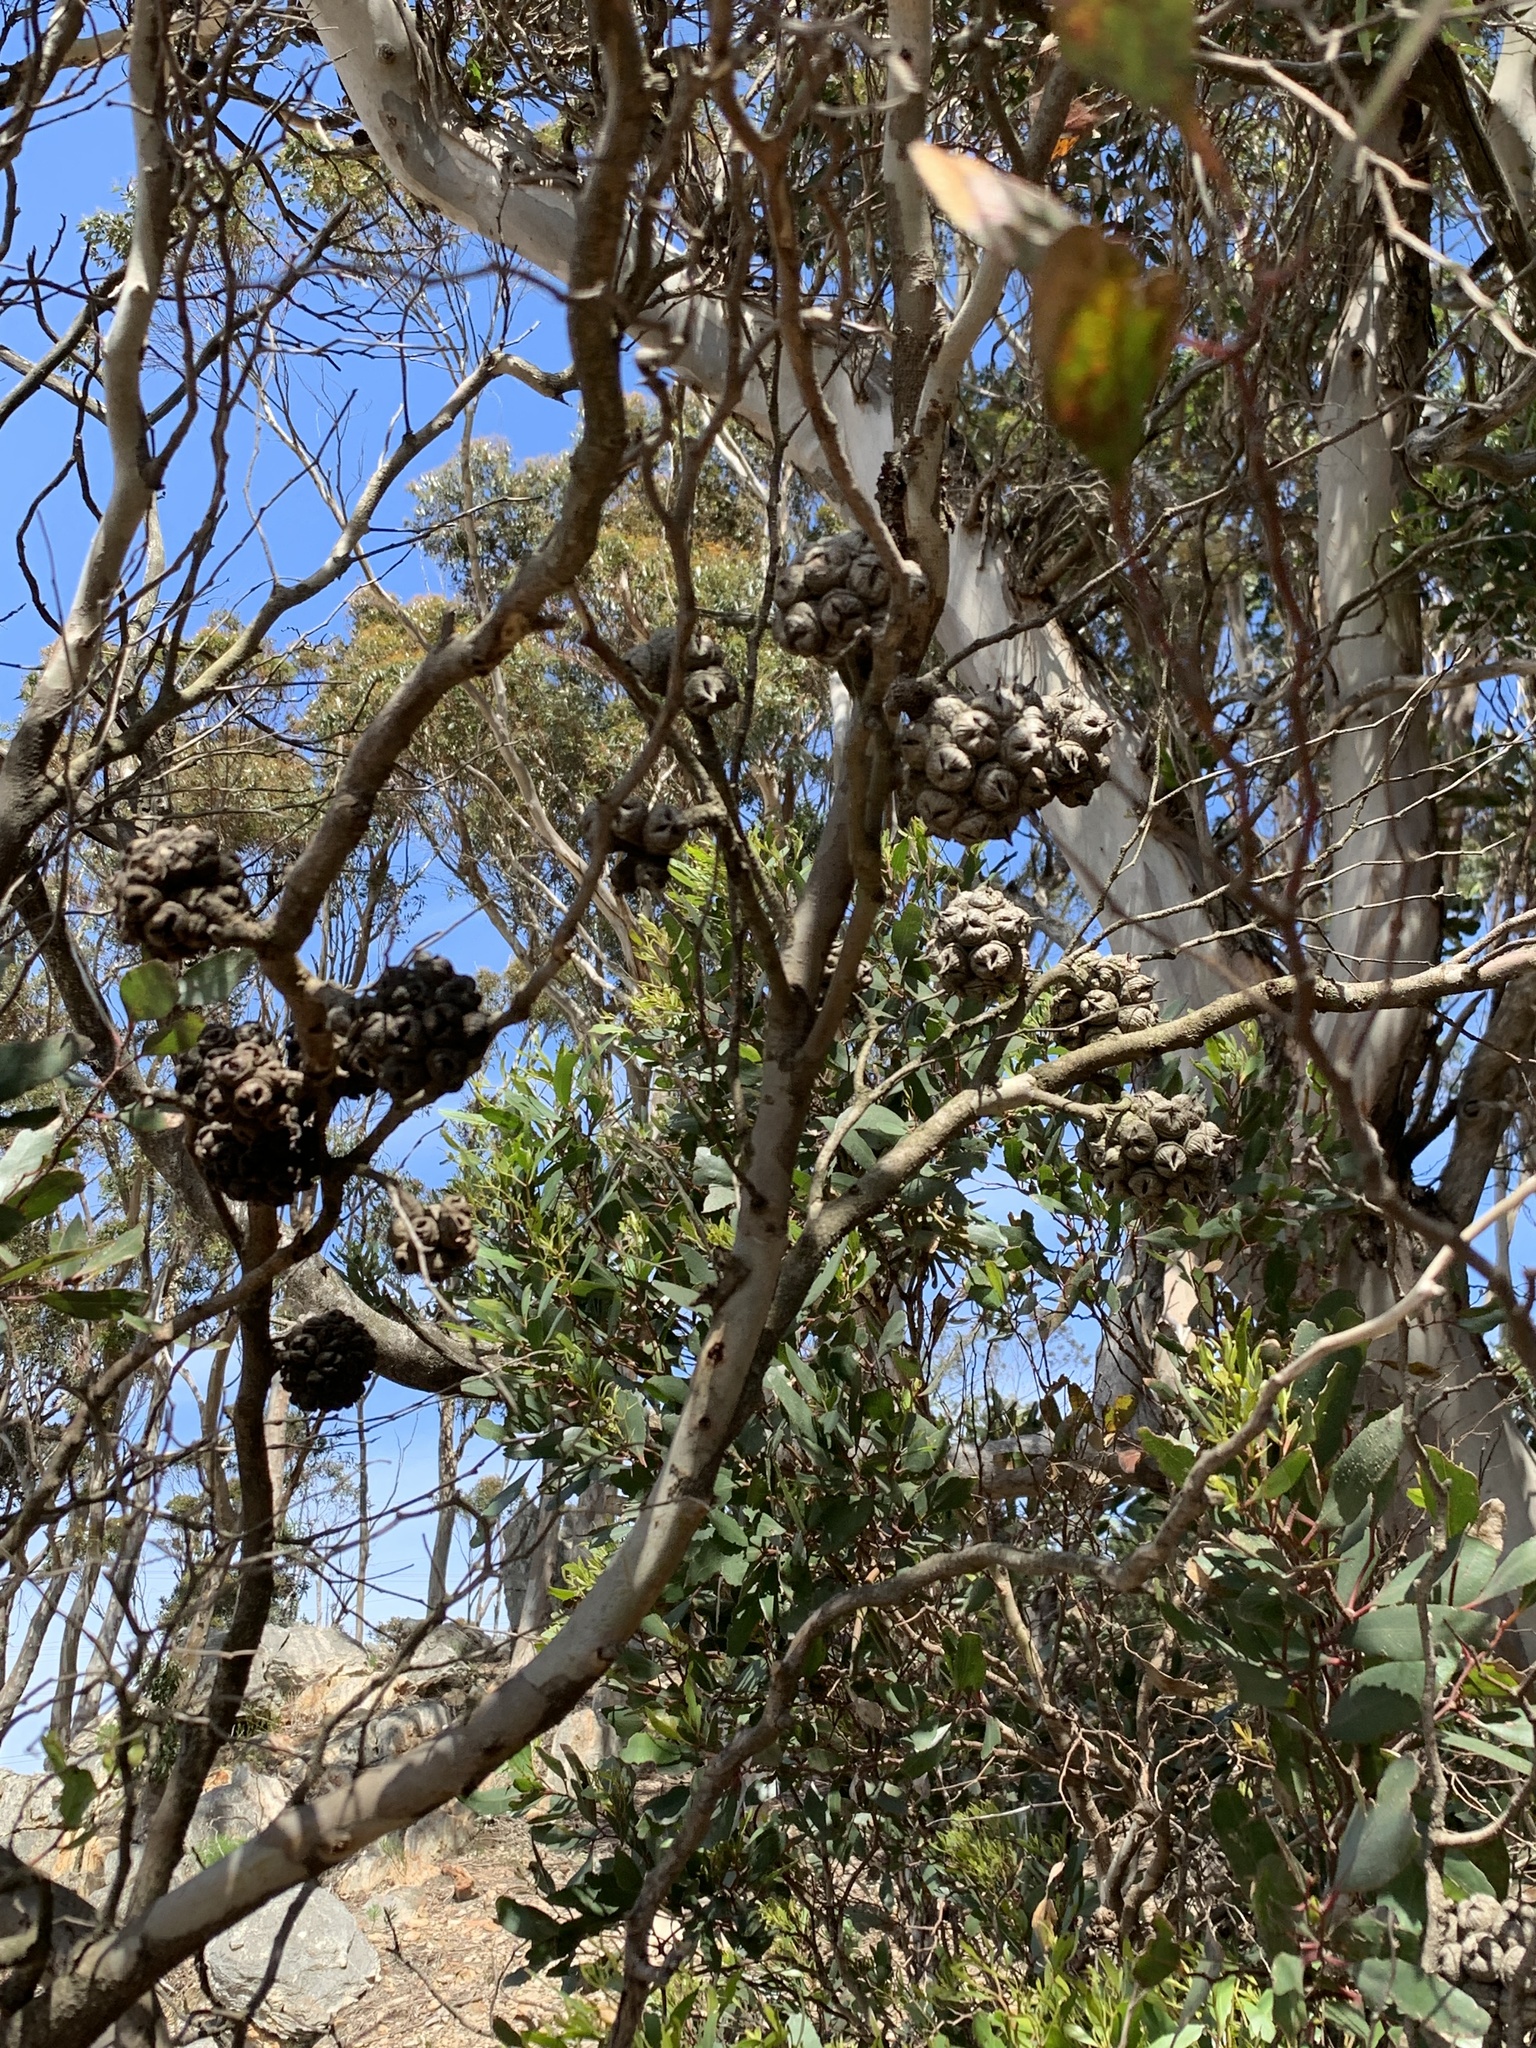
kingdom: Plantae
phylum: Tracheophyta
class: Magnoliopsida
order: Myrtales
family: Myrtaceae
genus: Eucalyptus
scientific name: Eucalyptus conferruminata
